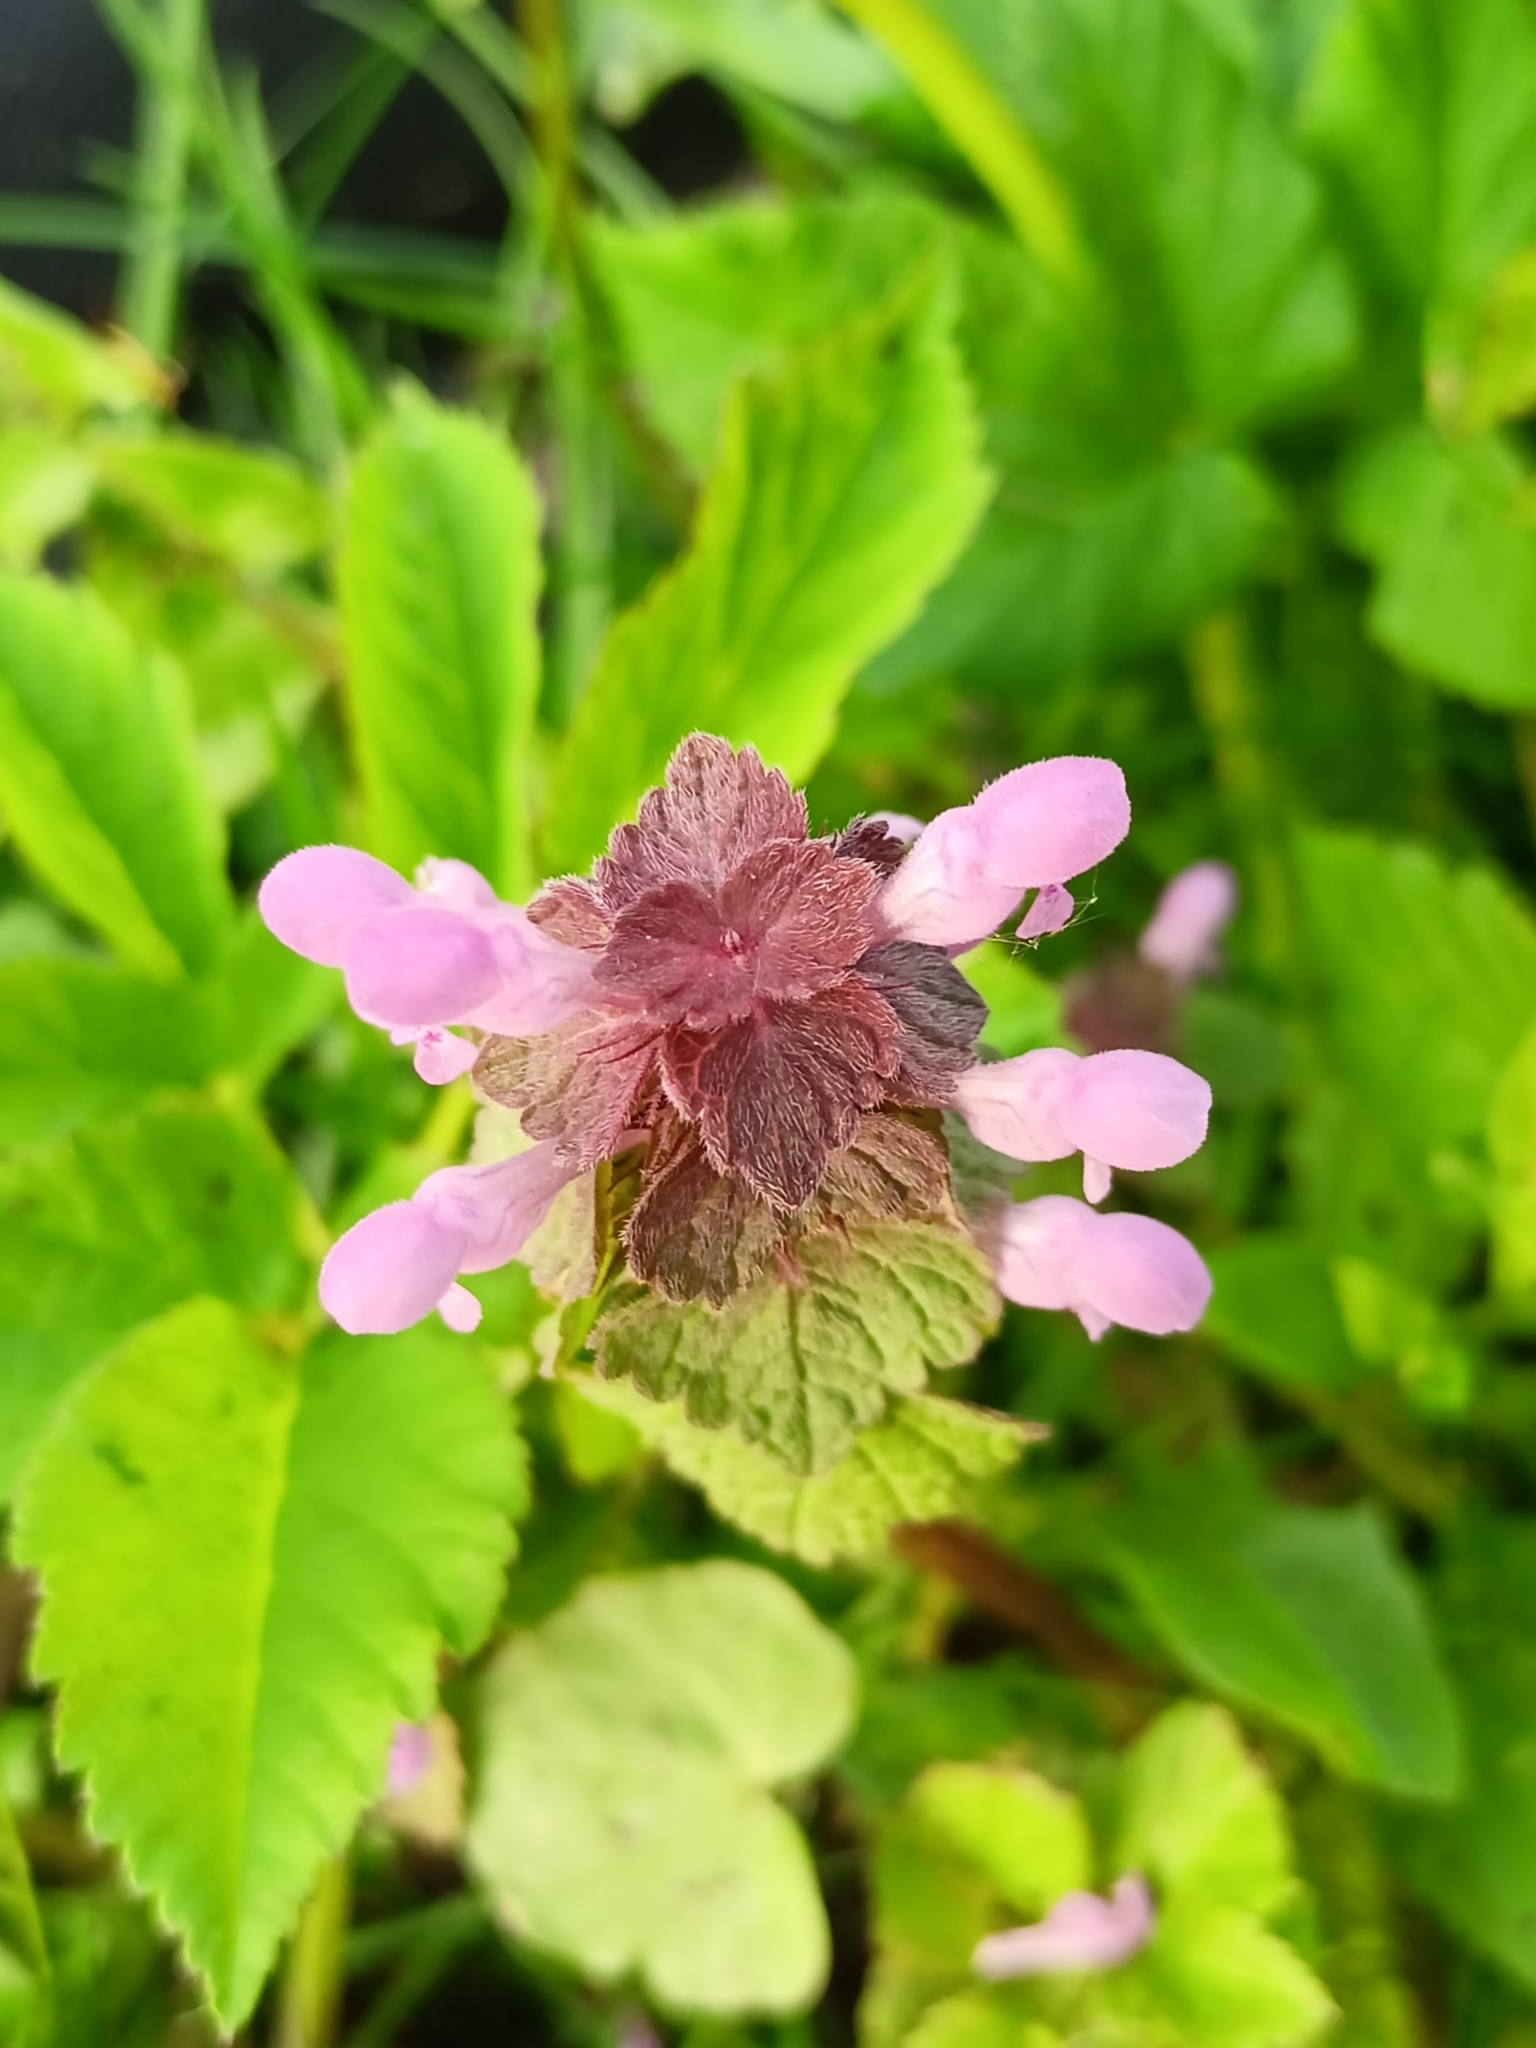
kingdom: Plantae
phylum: Tracheophyta
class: Magnoliopsida
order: Lamiales
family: Lamiaceae
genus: Lamium
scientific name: Lamium purpureum
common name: Red dead-nettle
